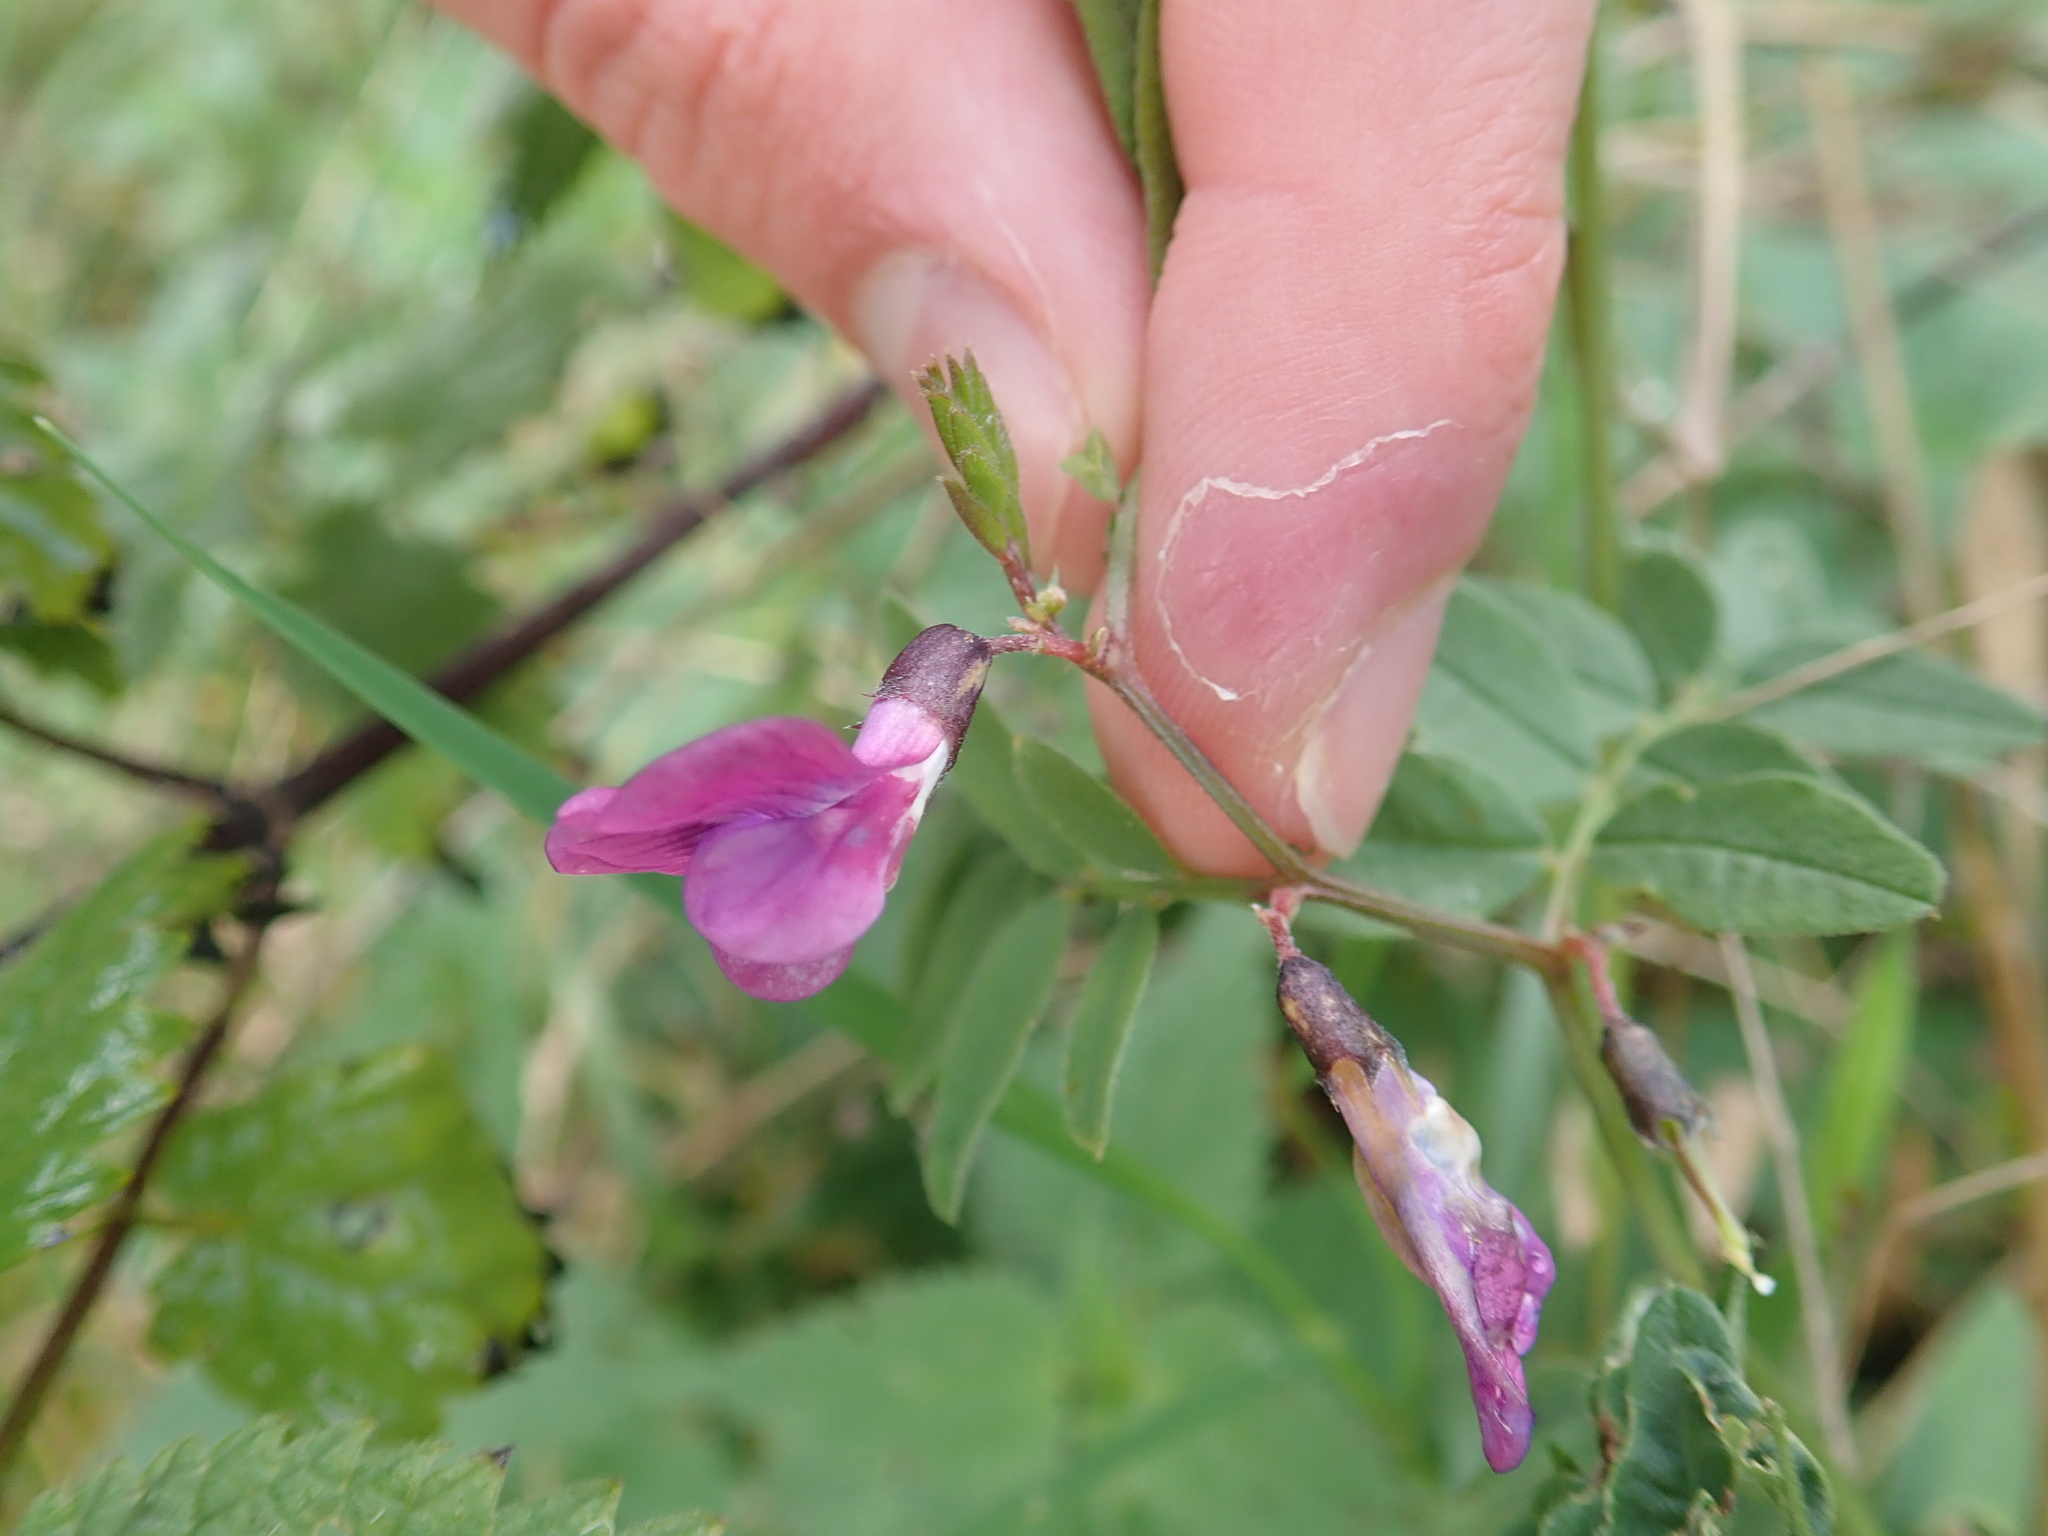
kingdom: Plantae
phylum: Tracheophyta
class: Magnoliopsida
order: Fabales
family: Fabaceae
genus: Vicia
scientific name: Vicia sepium
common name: Bush vetch
